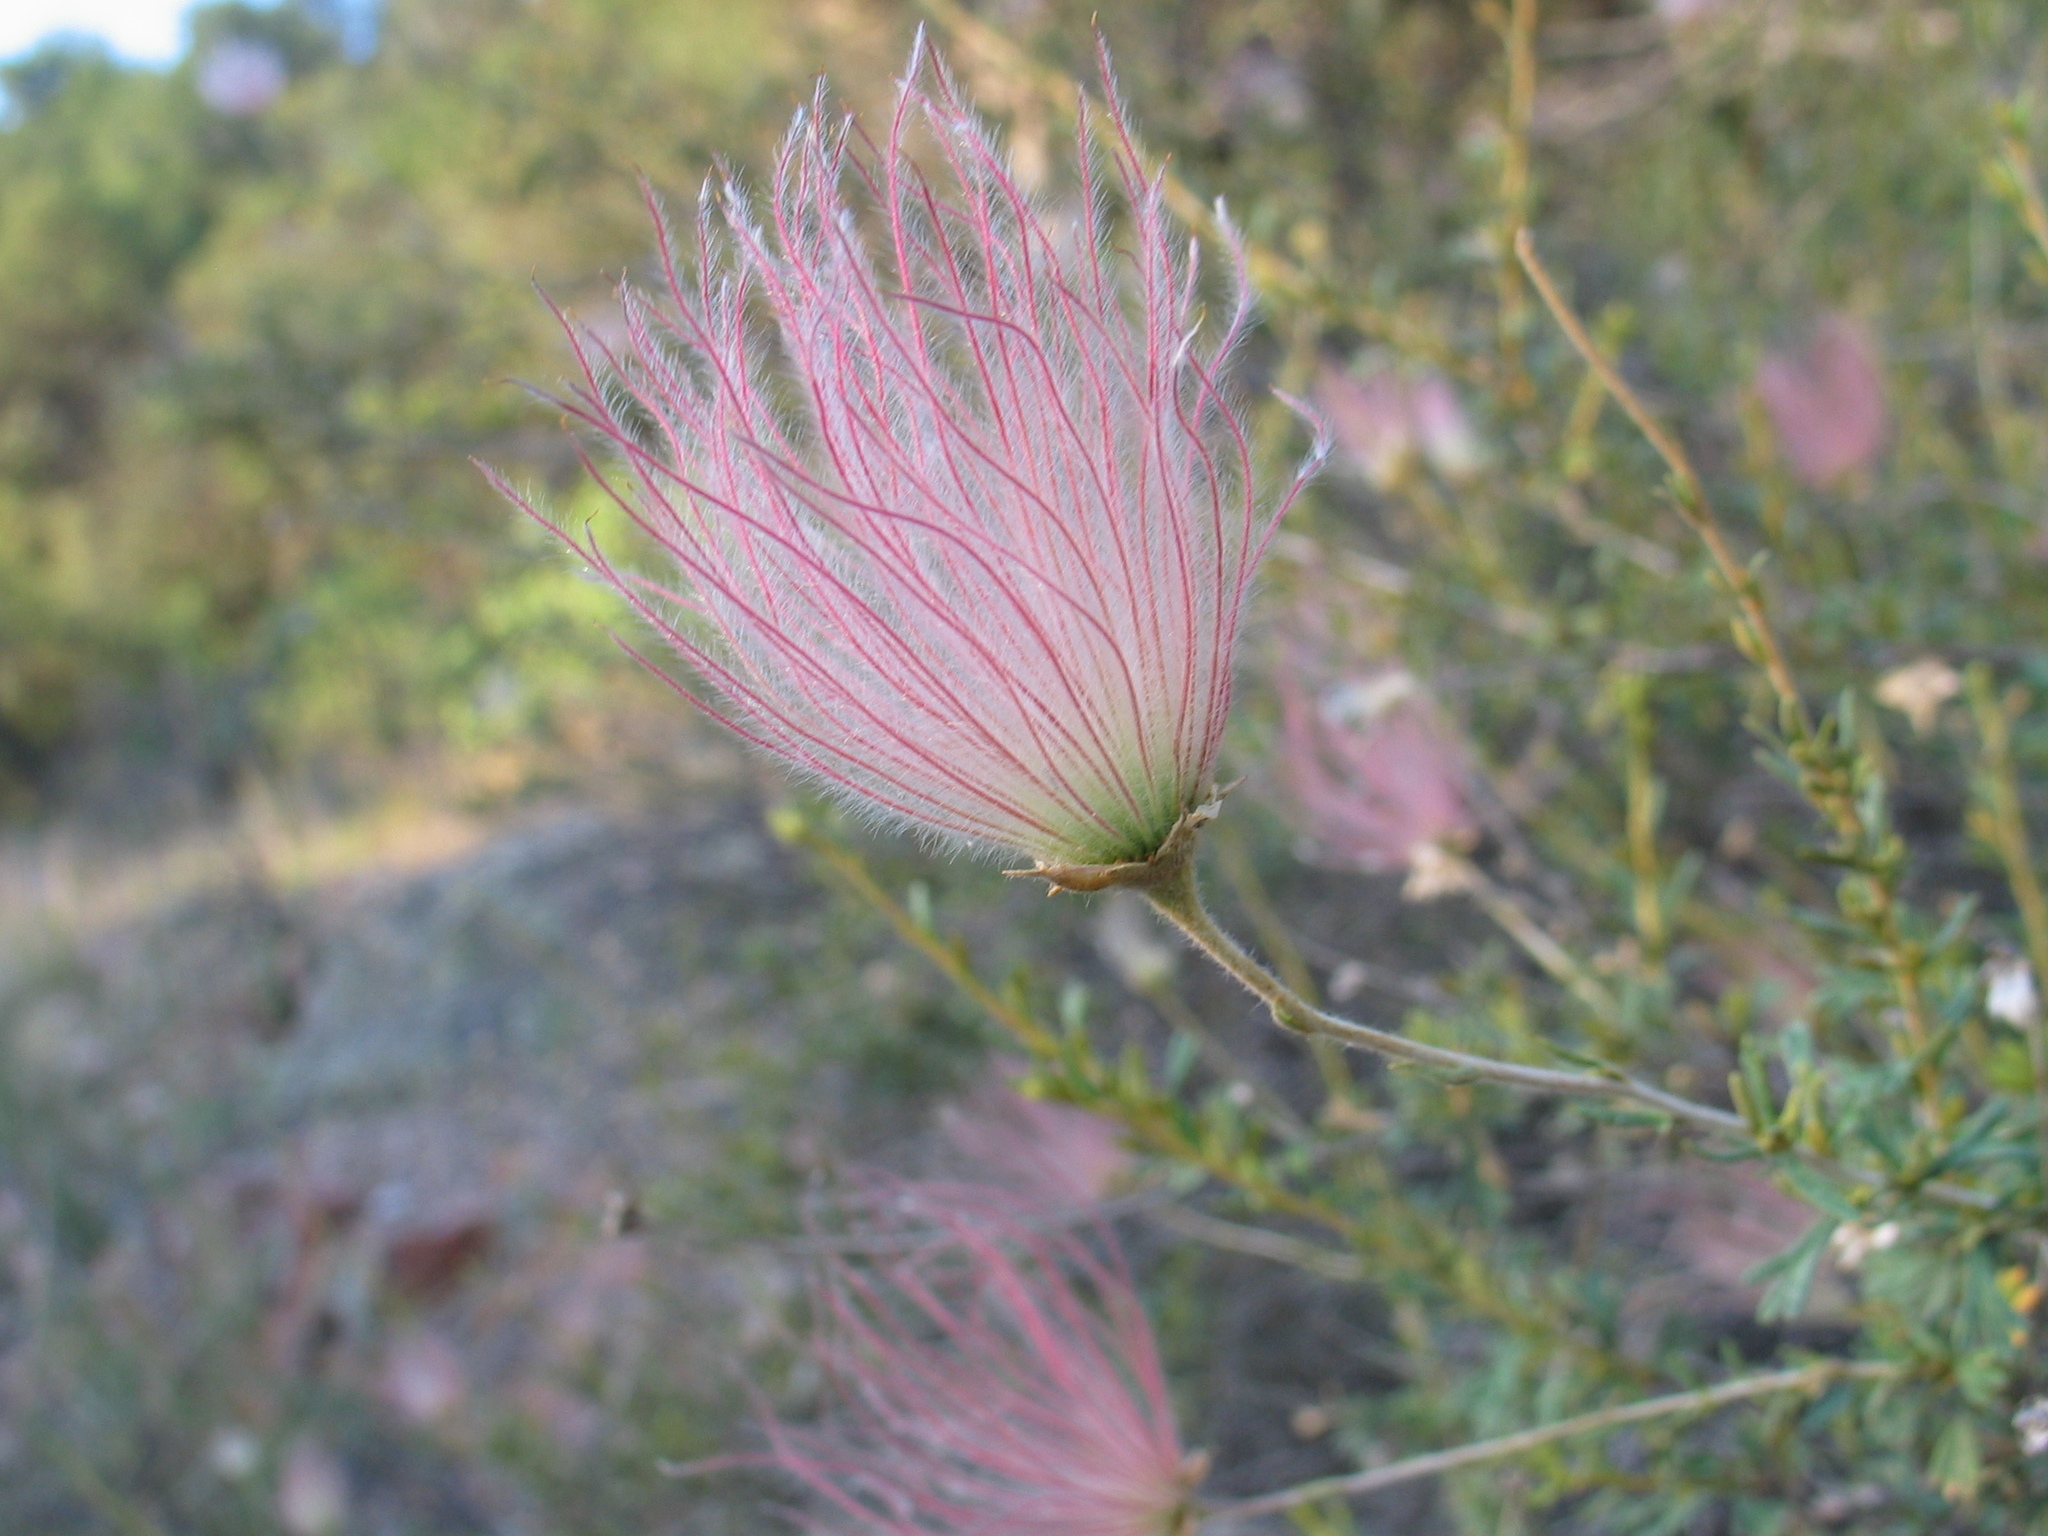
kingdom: Plantae
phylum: Tracheophyta
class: Magnoliopsida
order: Rosales
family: Rosaceae
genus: Fallugia
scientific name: Fallugia paradoxa
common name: Apache-plume
